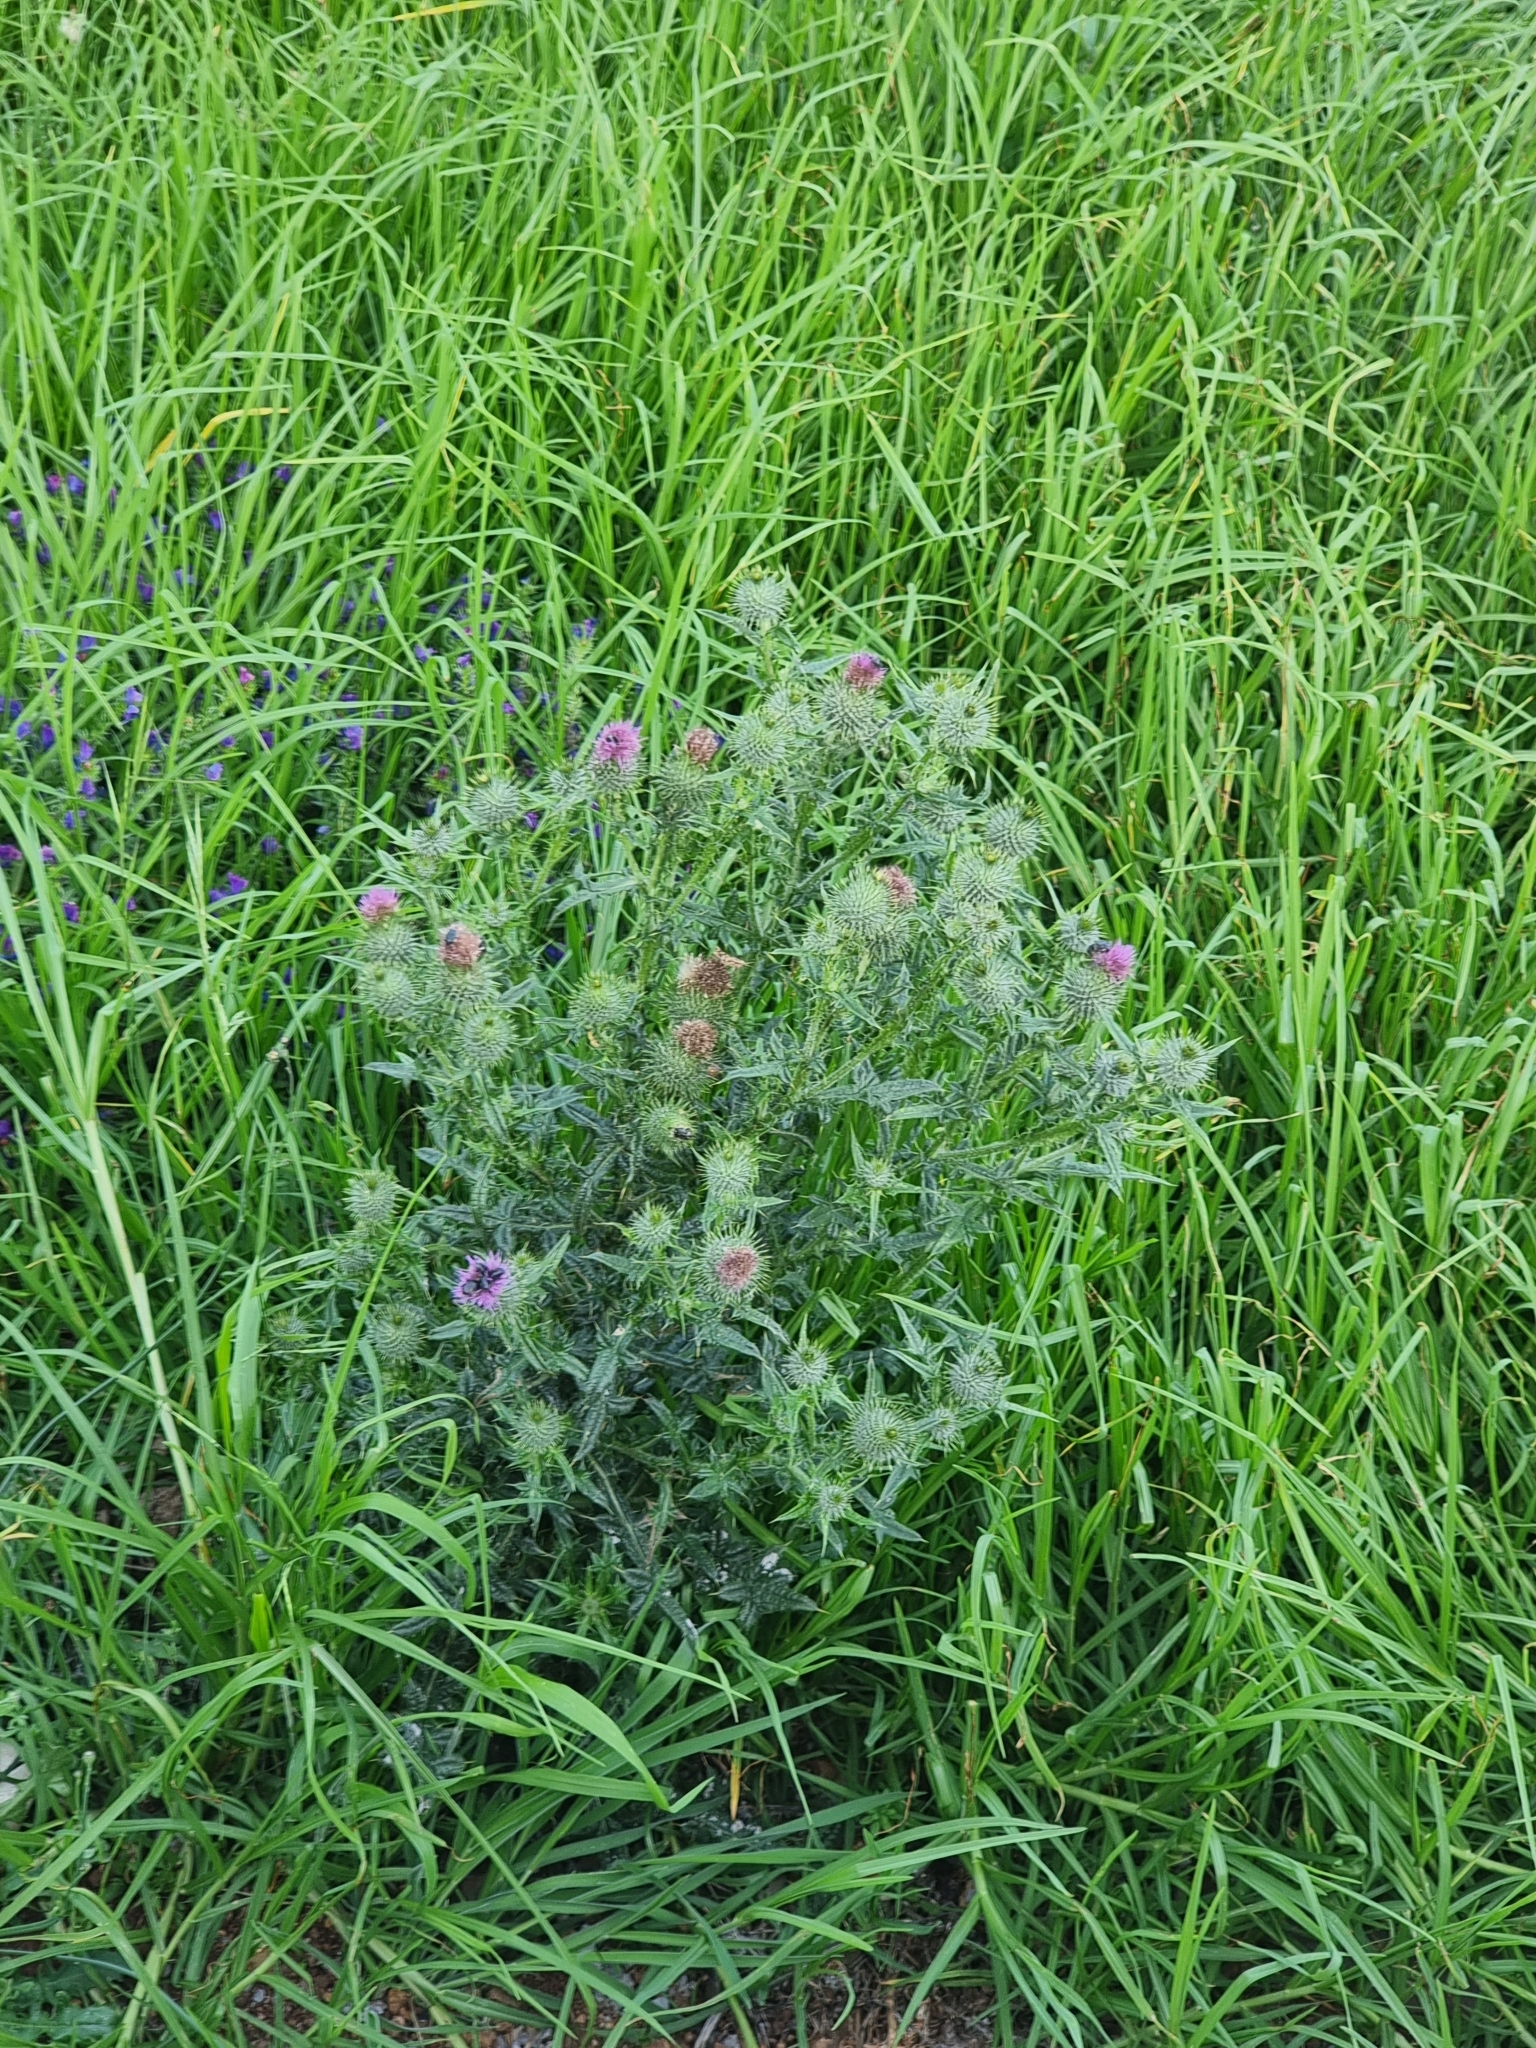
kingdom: Plantae
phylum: Tracheophyta
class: Magnoliopsida
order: Asterales
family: Asteraceae
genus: Cirsium
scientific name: Cirsium vulgare
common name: Bull thistle
